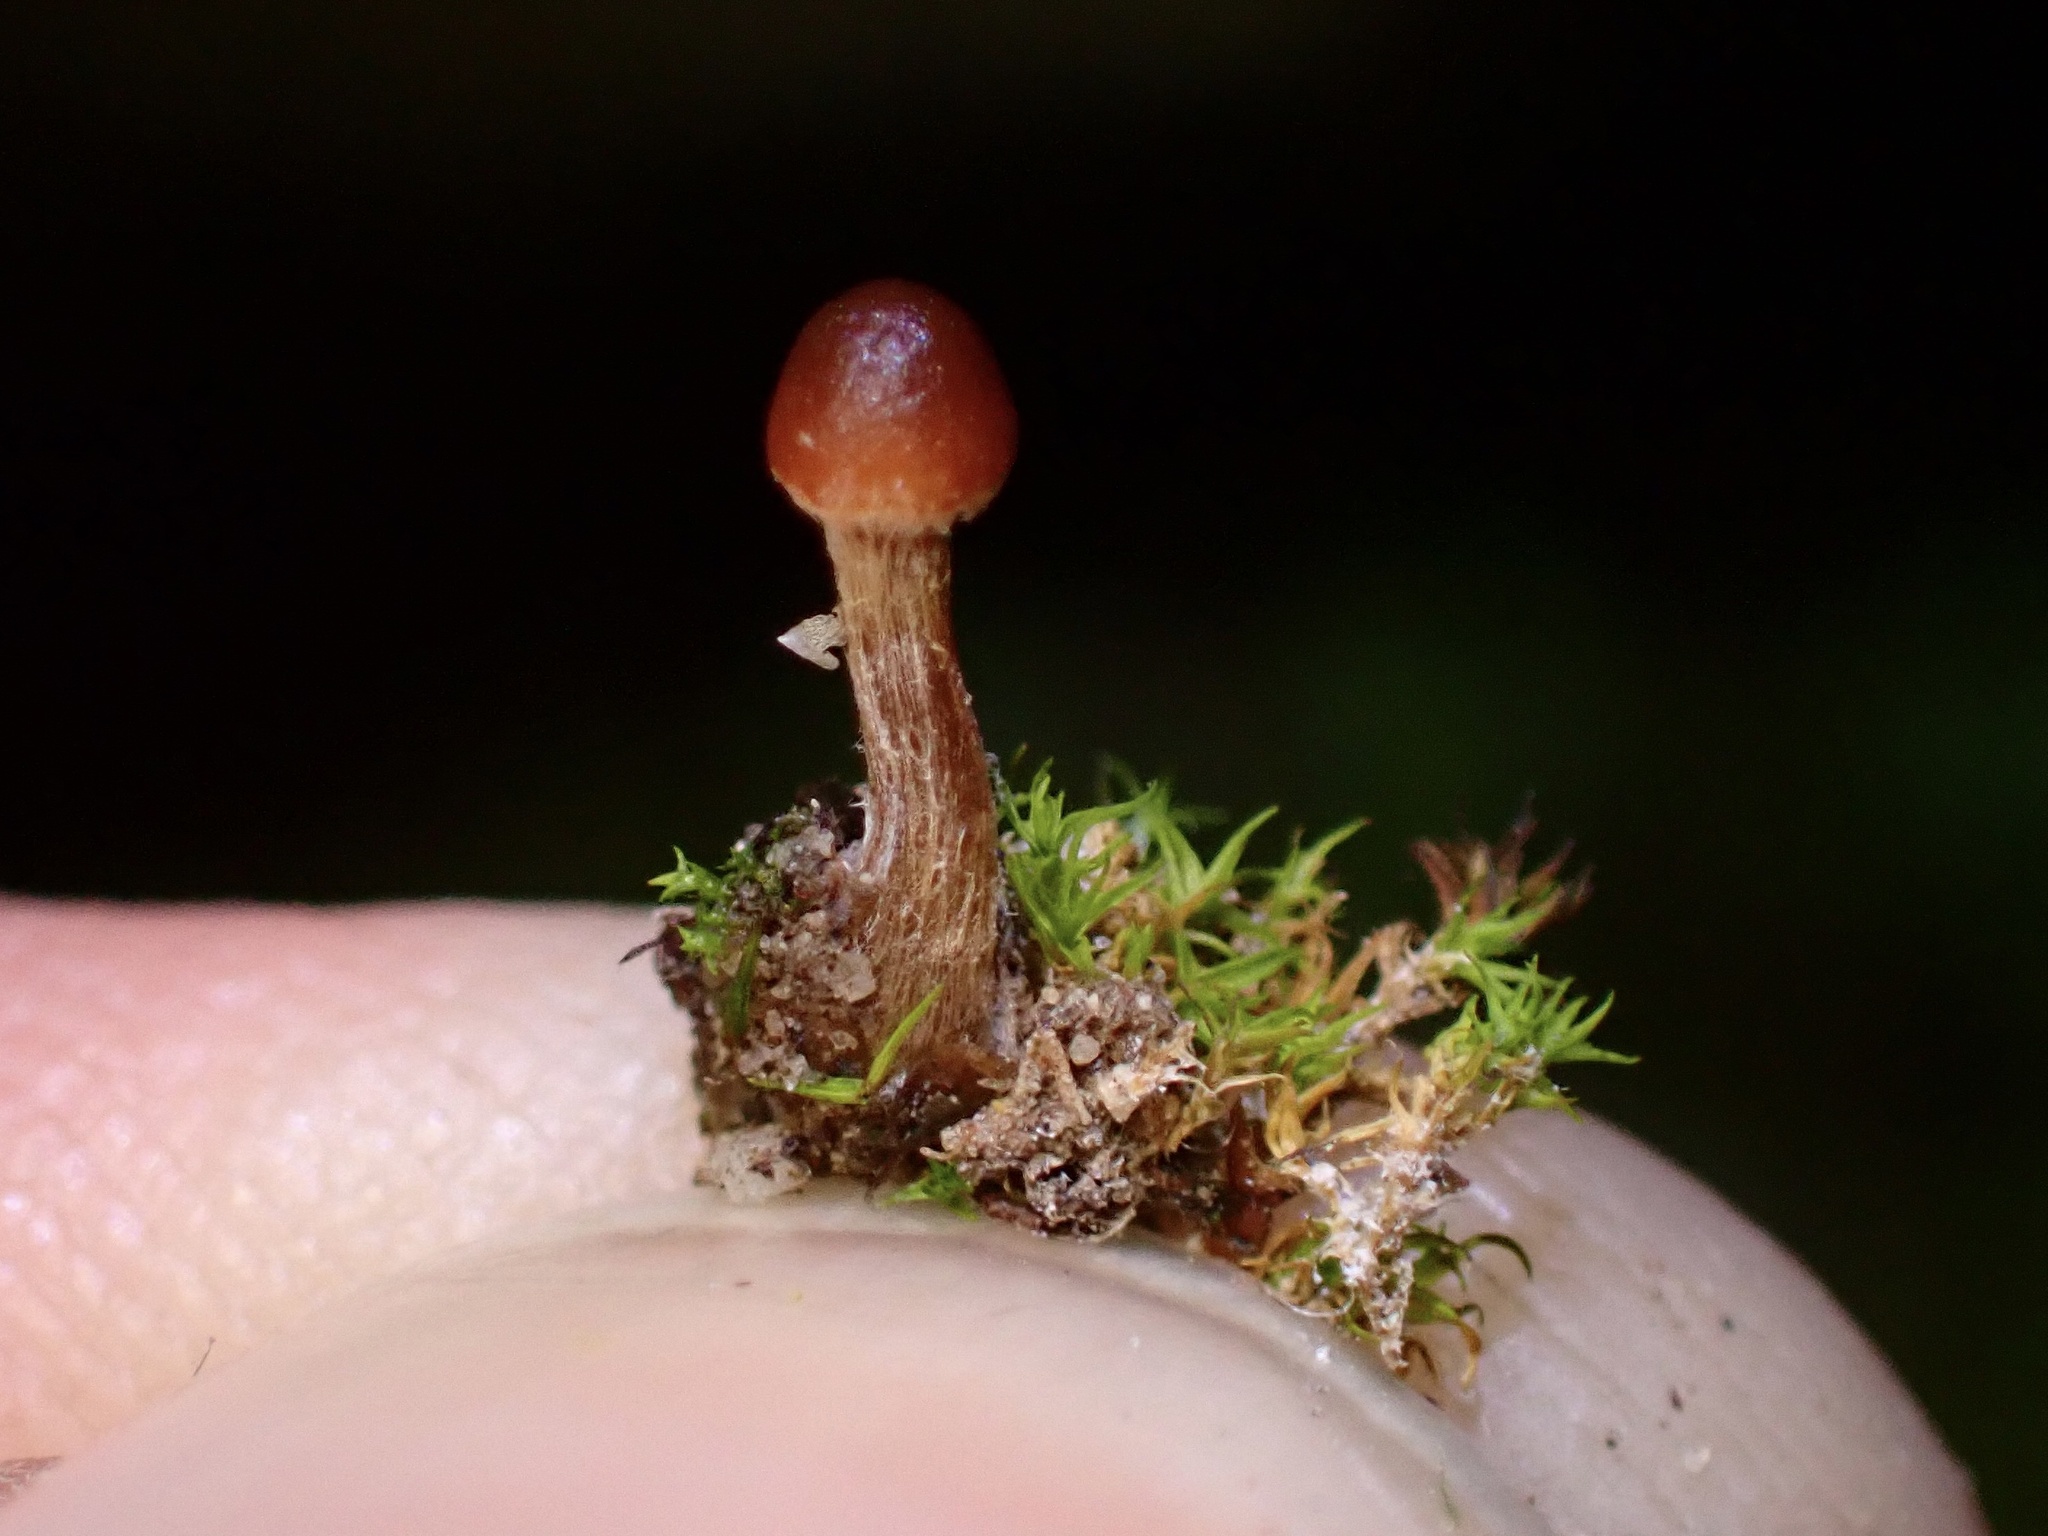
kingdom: Fungi
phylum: Basidiomycota
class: Agaricomycetes
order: Agaricales
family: Strophariaceae
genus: Deconica
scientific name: Deconica montana
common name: Mountain moss deconica
